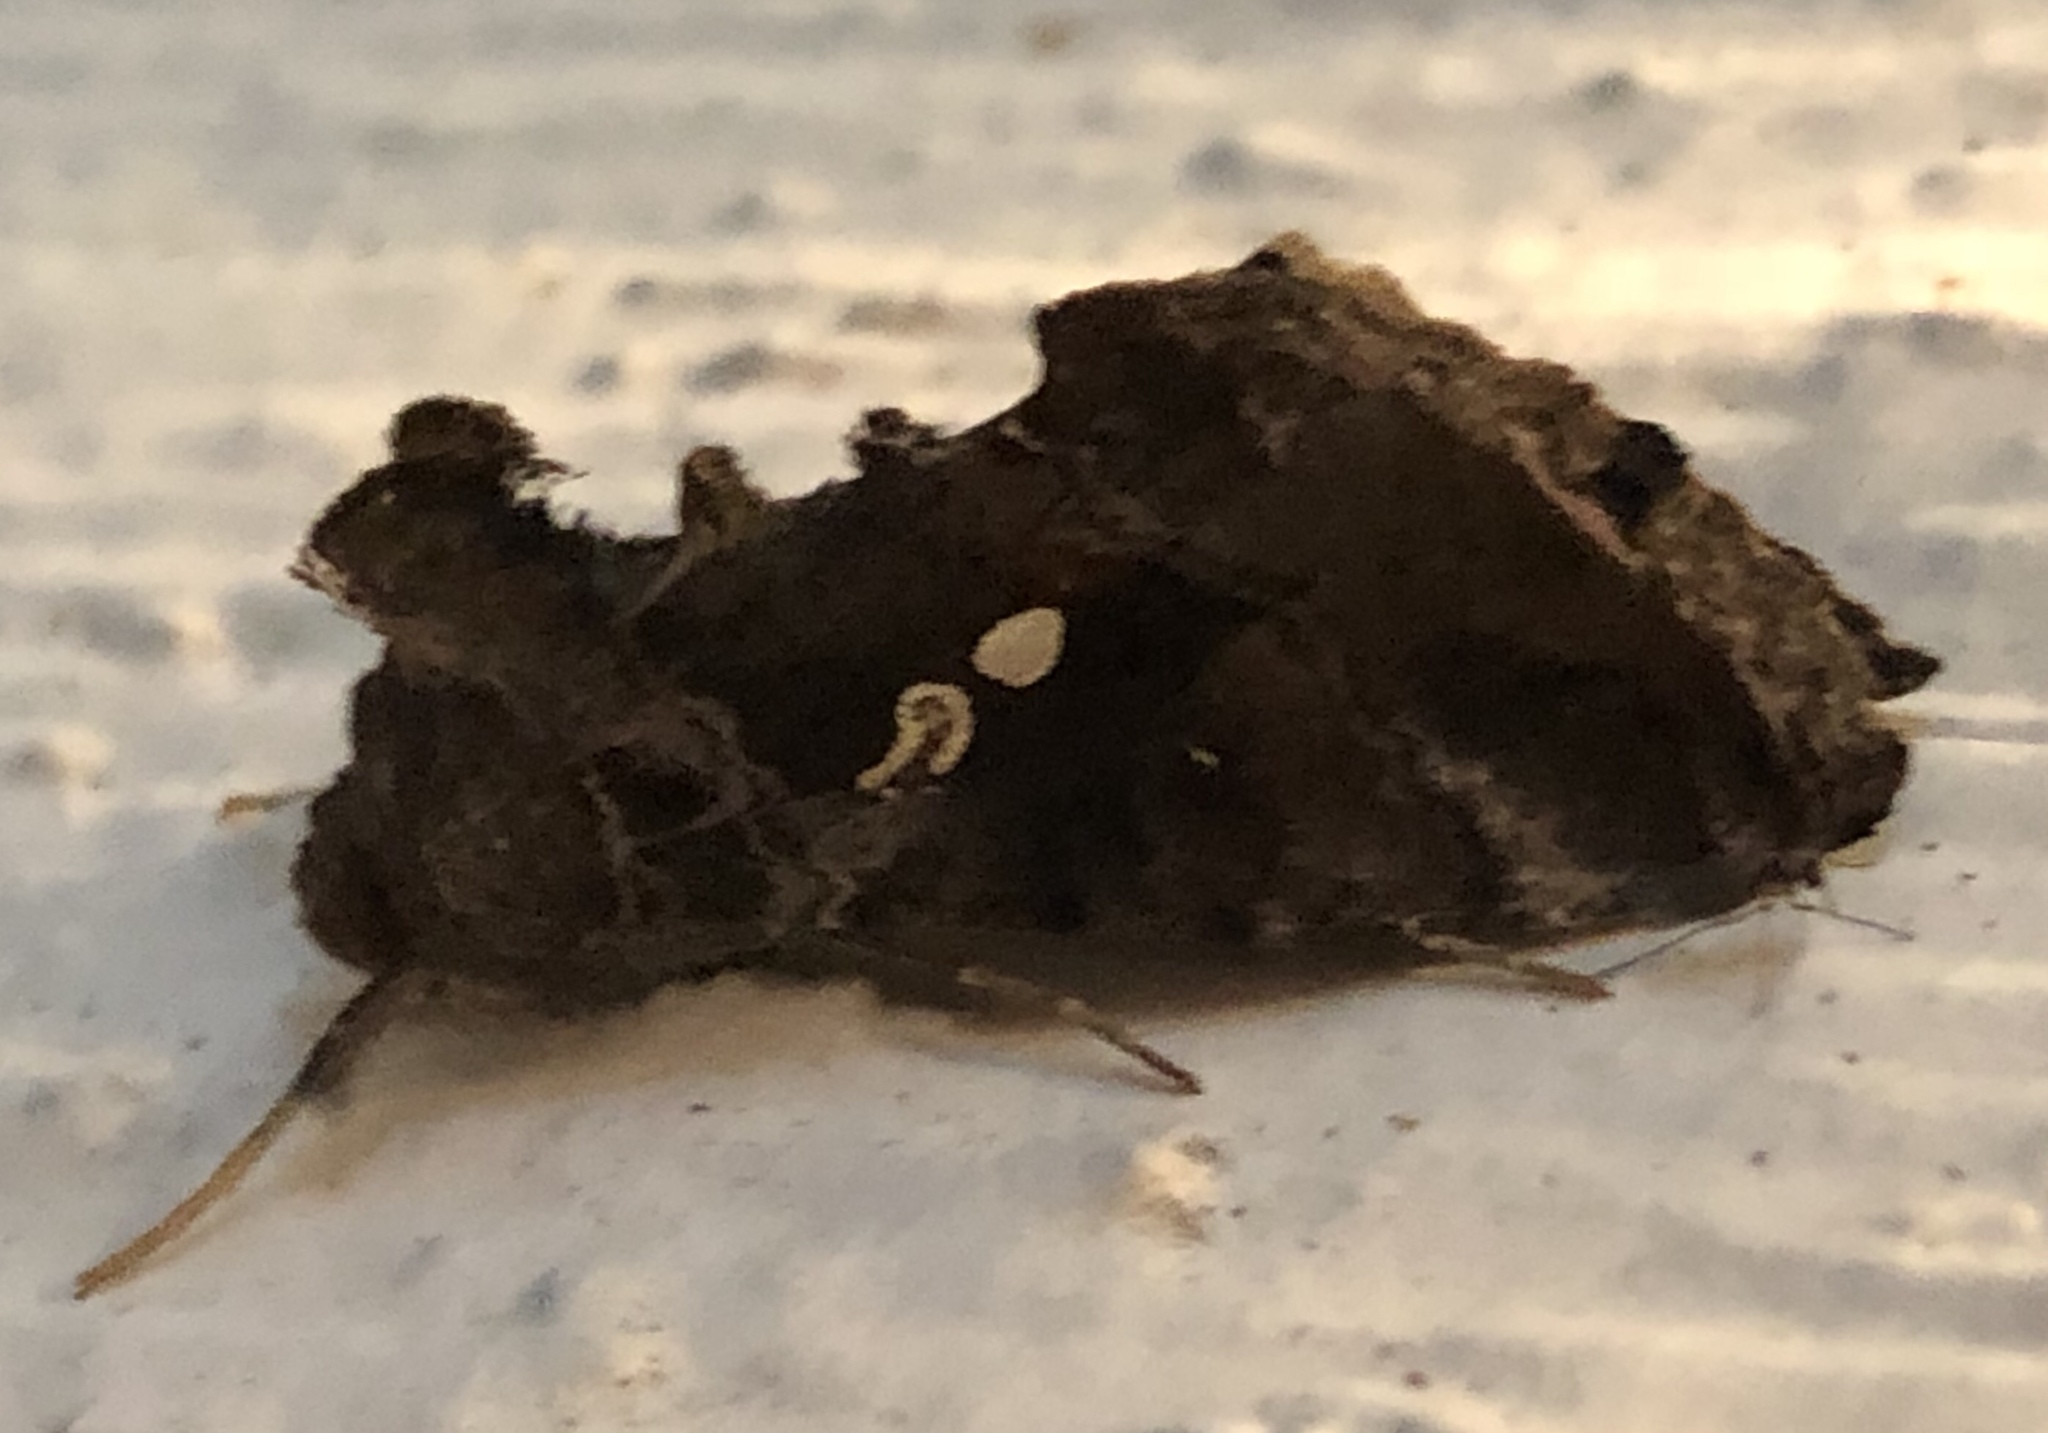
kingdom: Animalia
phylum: Arthropoda
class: Insecta
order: Lepidoptera
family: Noctuidae
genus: Chrysodeixis
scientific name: Chrysodeixis includens
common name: Cutworm moth
